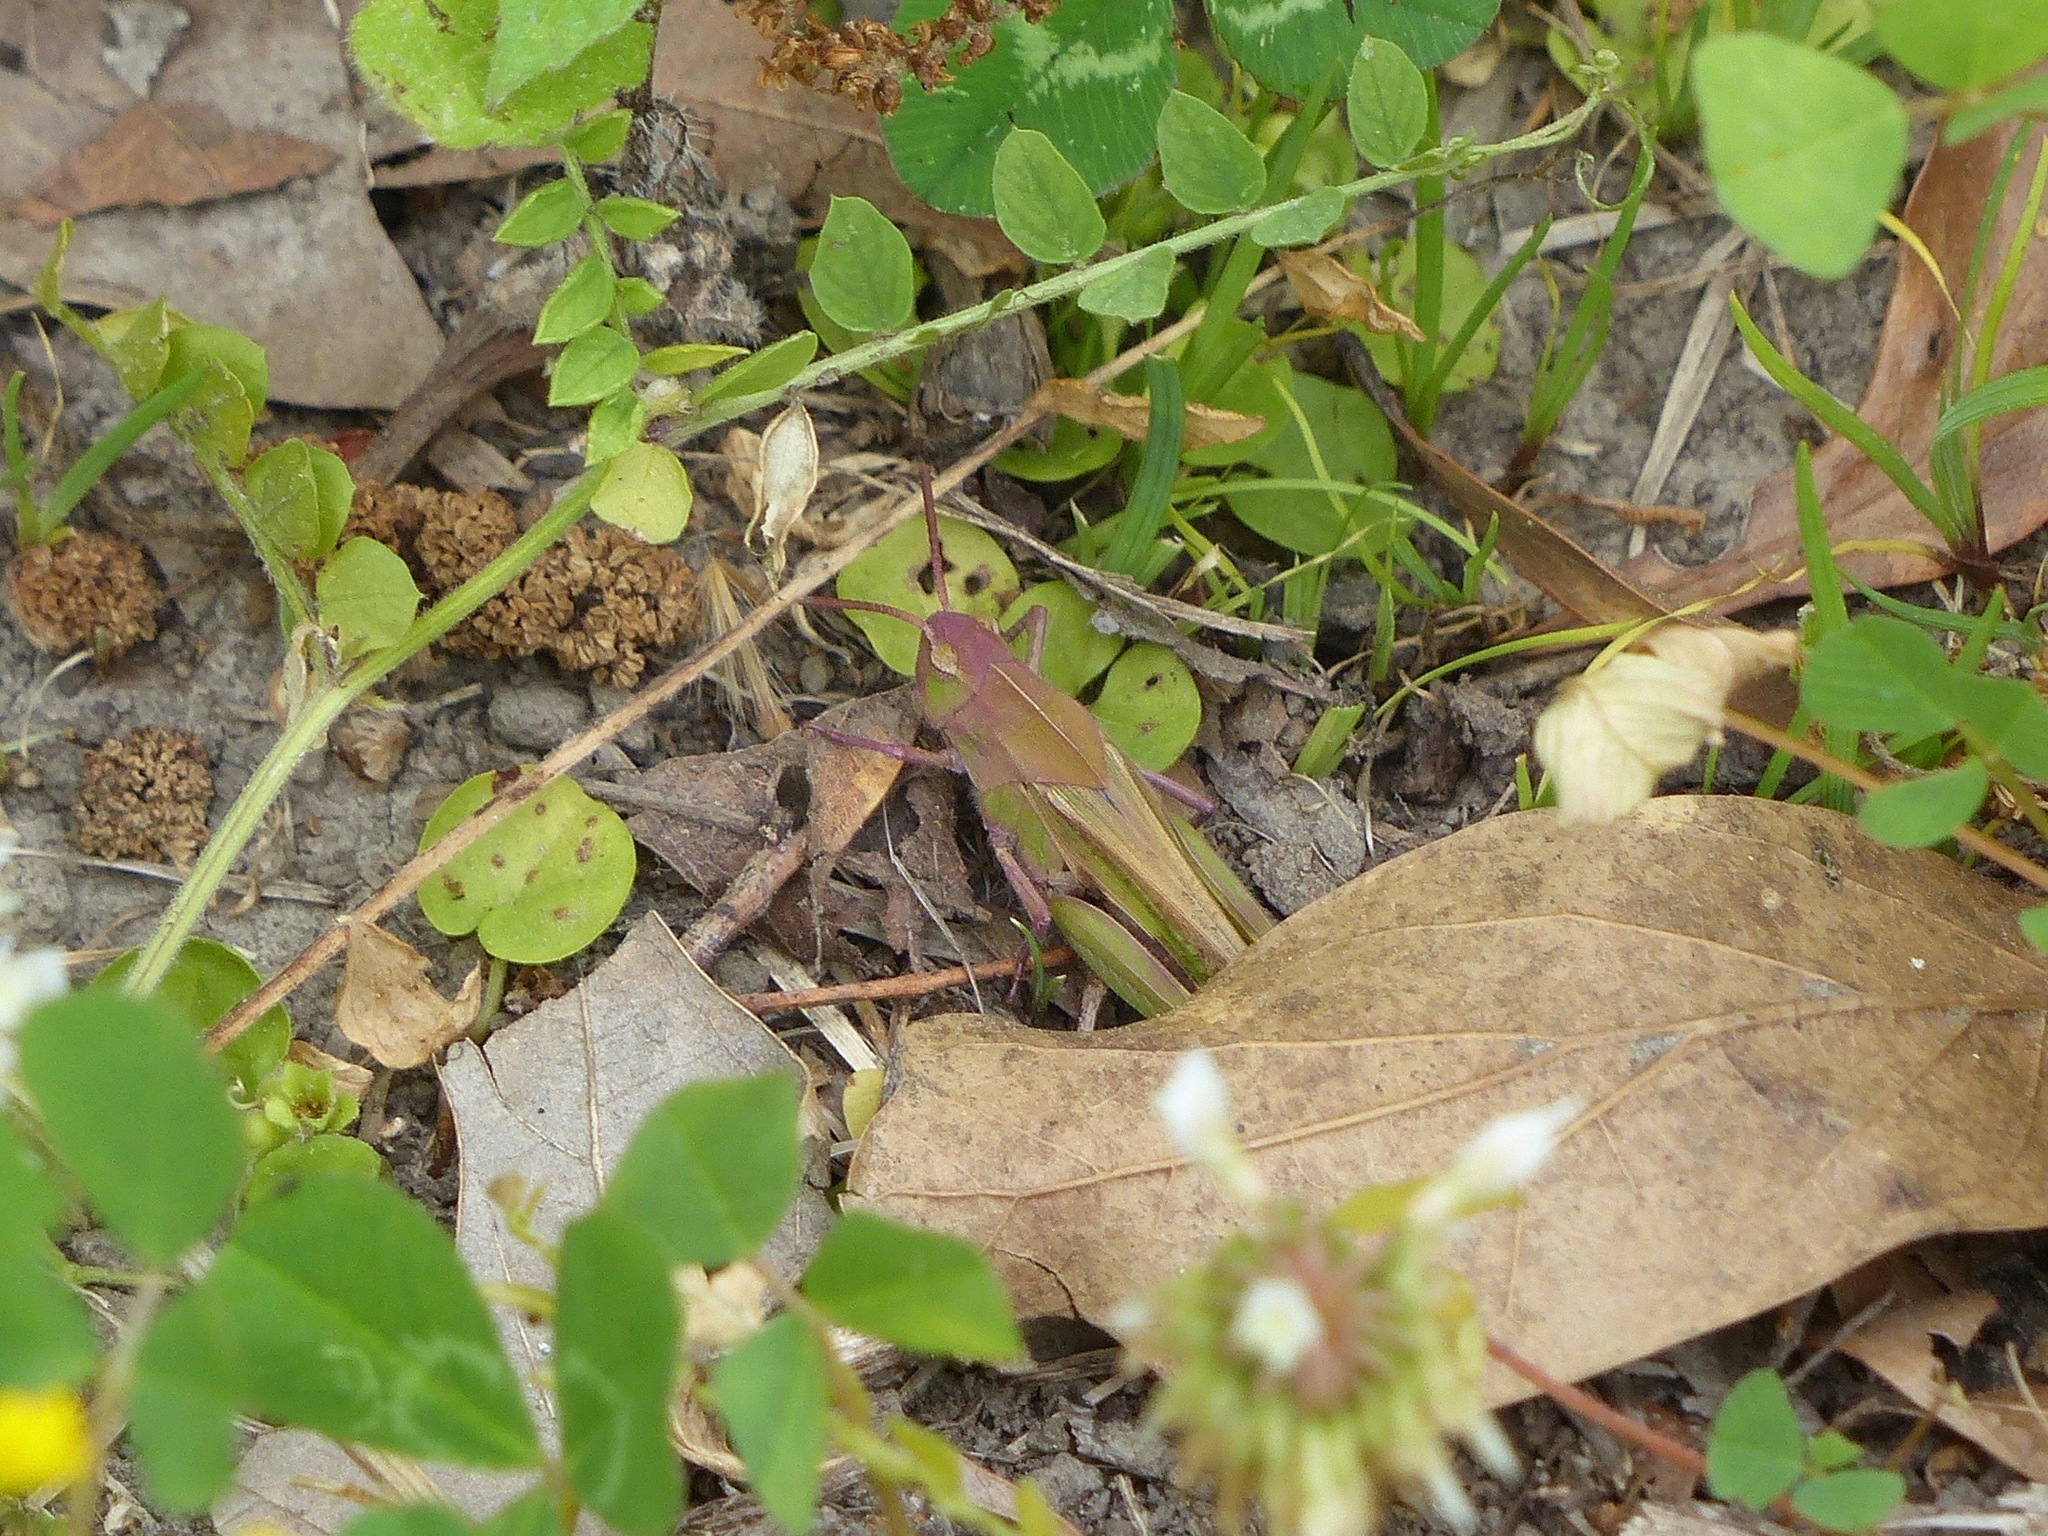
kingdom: Animalia
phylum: Arthropoda
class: Insecta
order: Orthoptera
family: Acrididae
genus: Chortophaga
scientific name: Chortophaga viridifasciata
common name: Green-striped grasshopper
